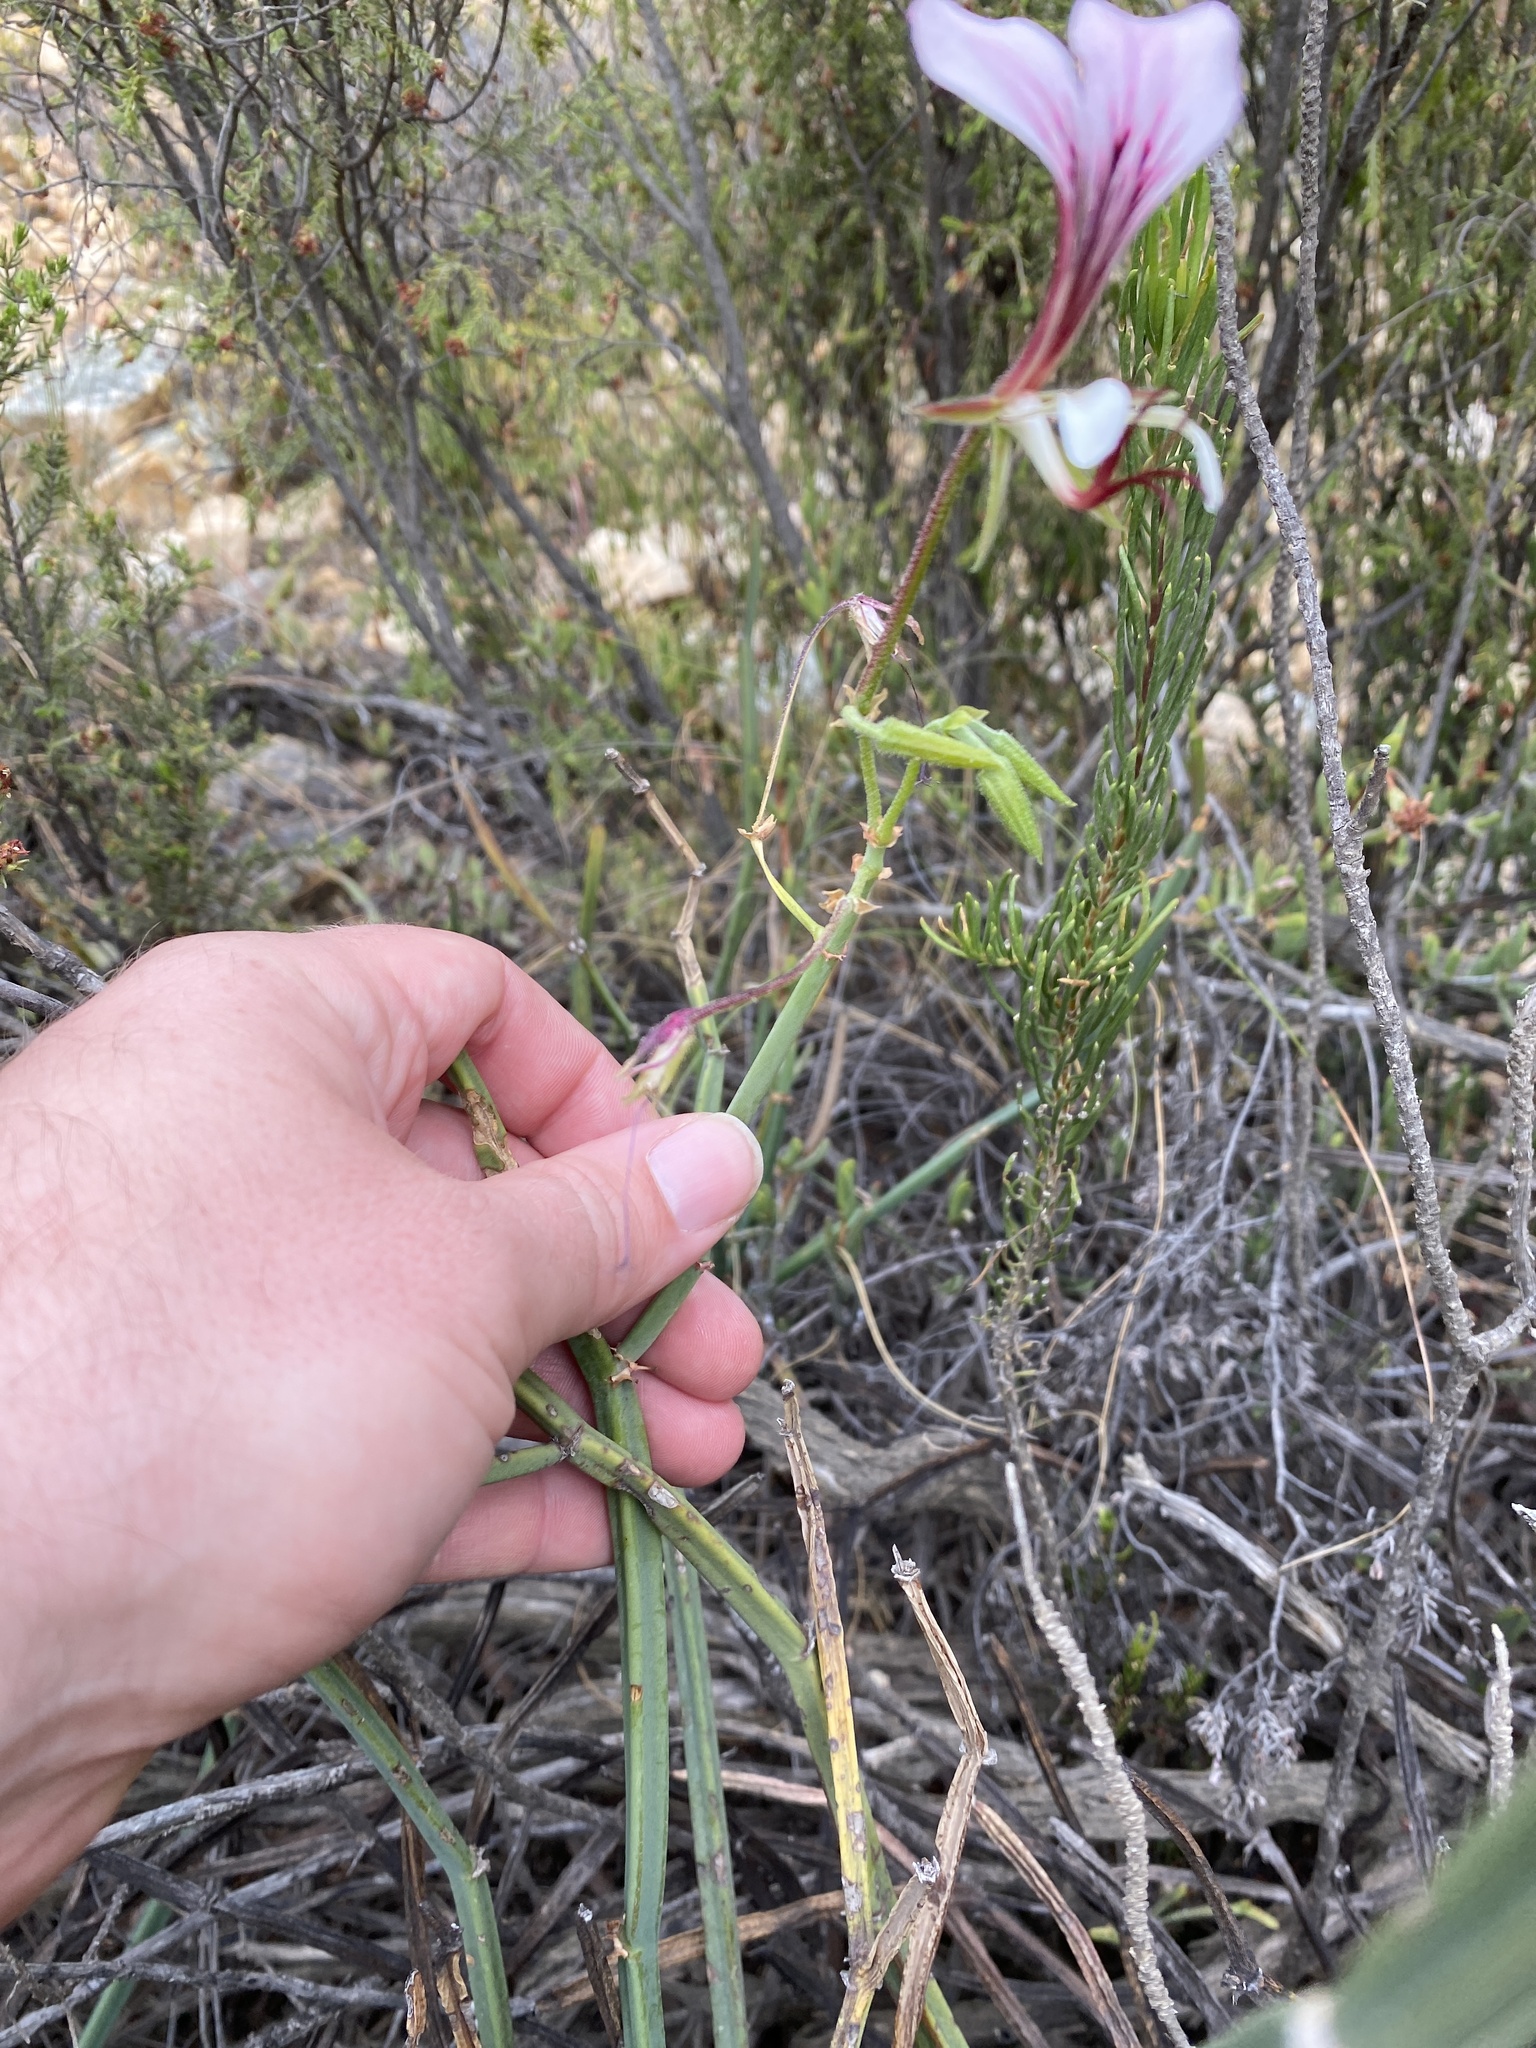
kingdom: Plantae
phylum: Tracheophyta
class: Magnoliopsida
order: Geraniales
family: Geraniaceae
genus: Pelargonium
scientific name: Pelargonium tetragonum
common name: Square-stack crane's-bill
